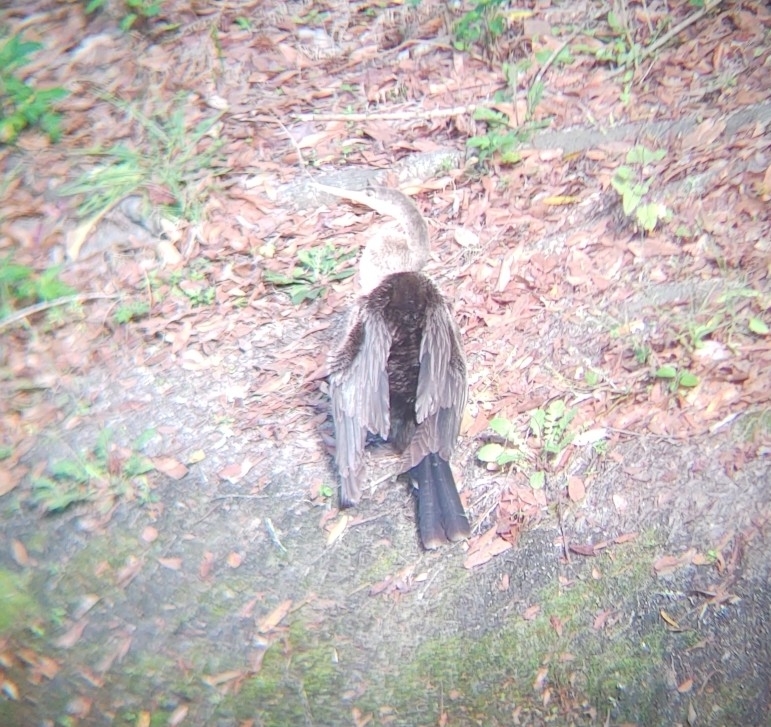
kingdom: Animalia
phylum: Chordata
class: Aves
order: Suliformes
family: Anhingidae
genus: Anhinga
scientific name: Anhinga anhinga
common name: Anhinga
